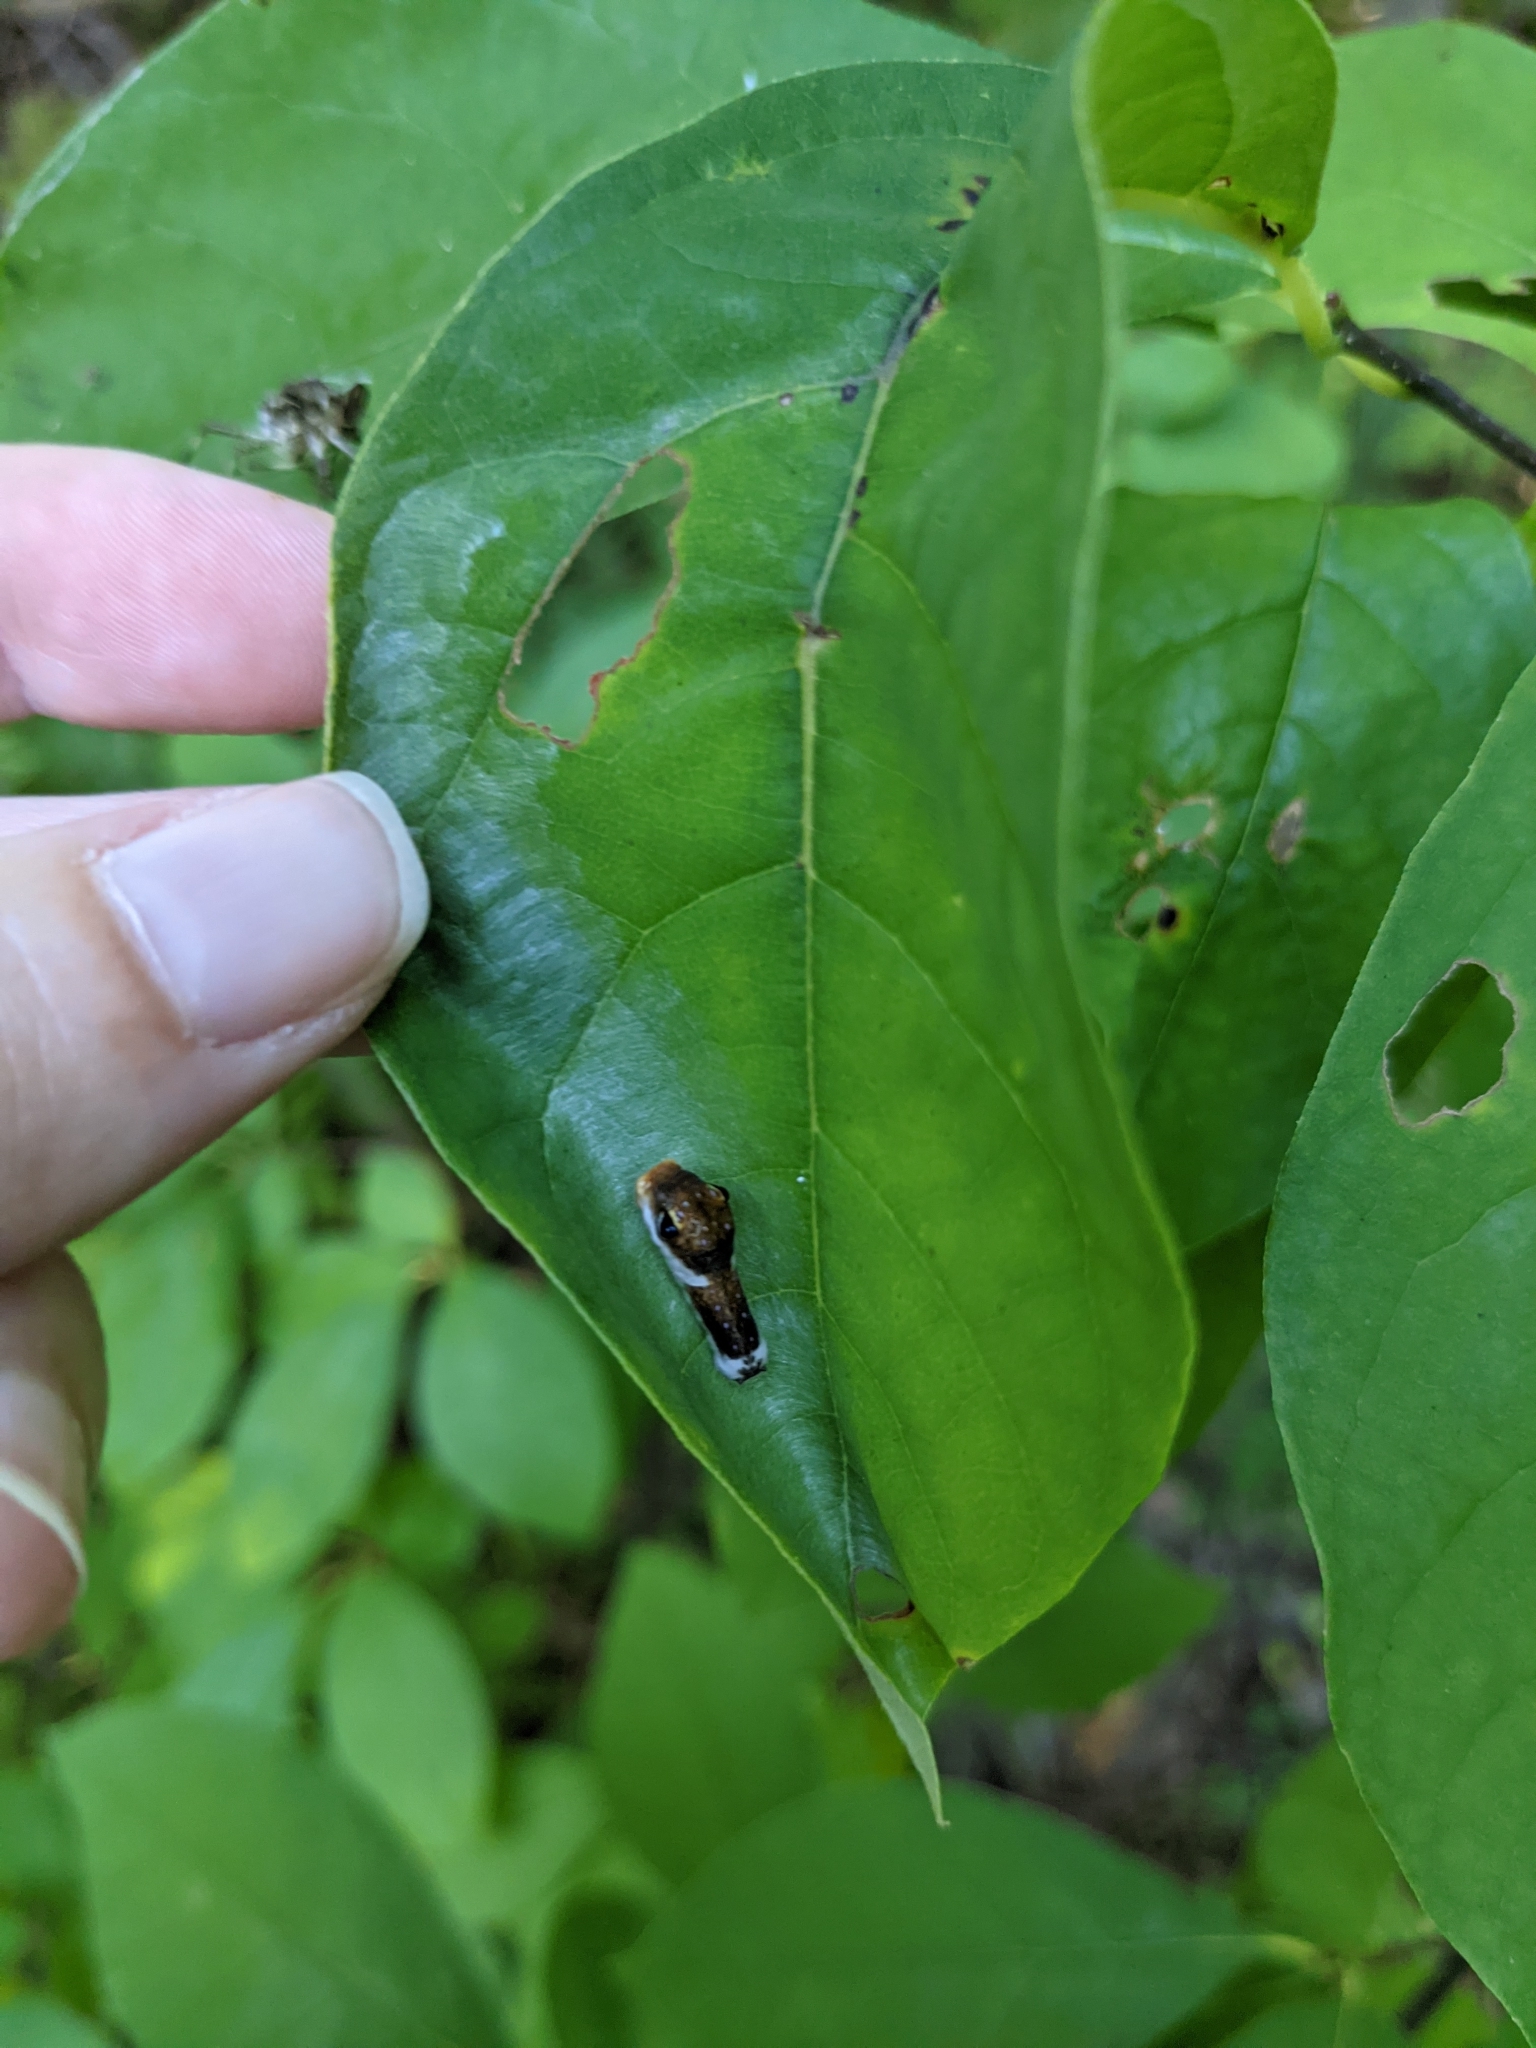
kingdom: Animalia
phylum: Arthropoda
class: Insecta
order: Lepidoptera
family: Papilionidae
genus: Papilio
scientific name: Papilio troilus
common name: Spicebush swallowtail
